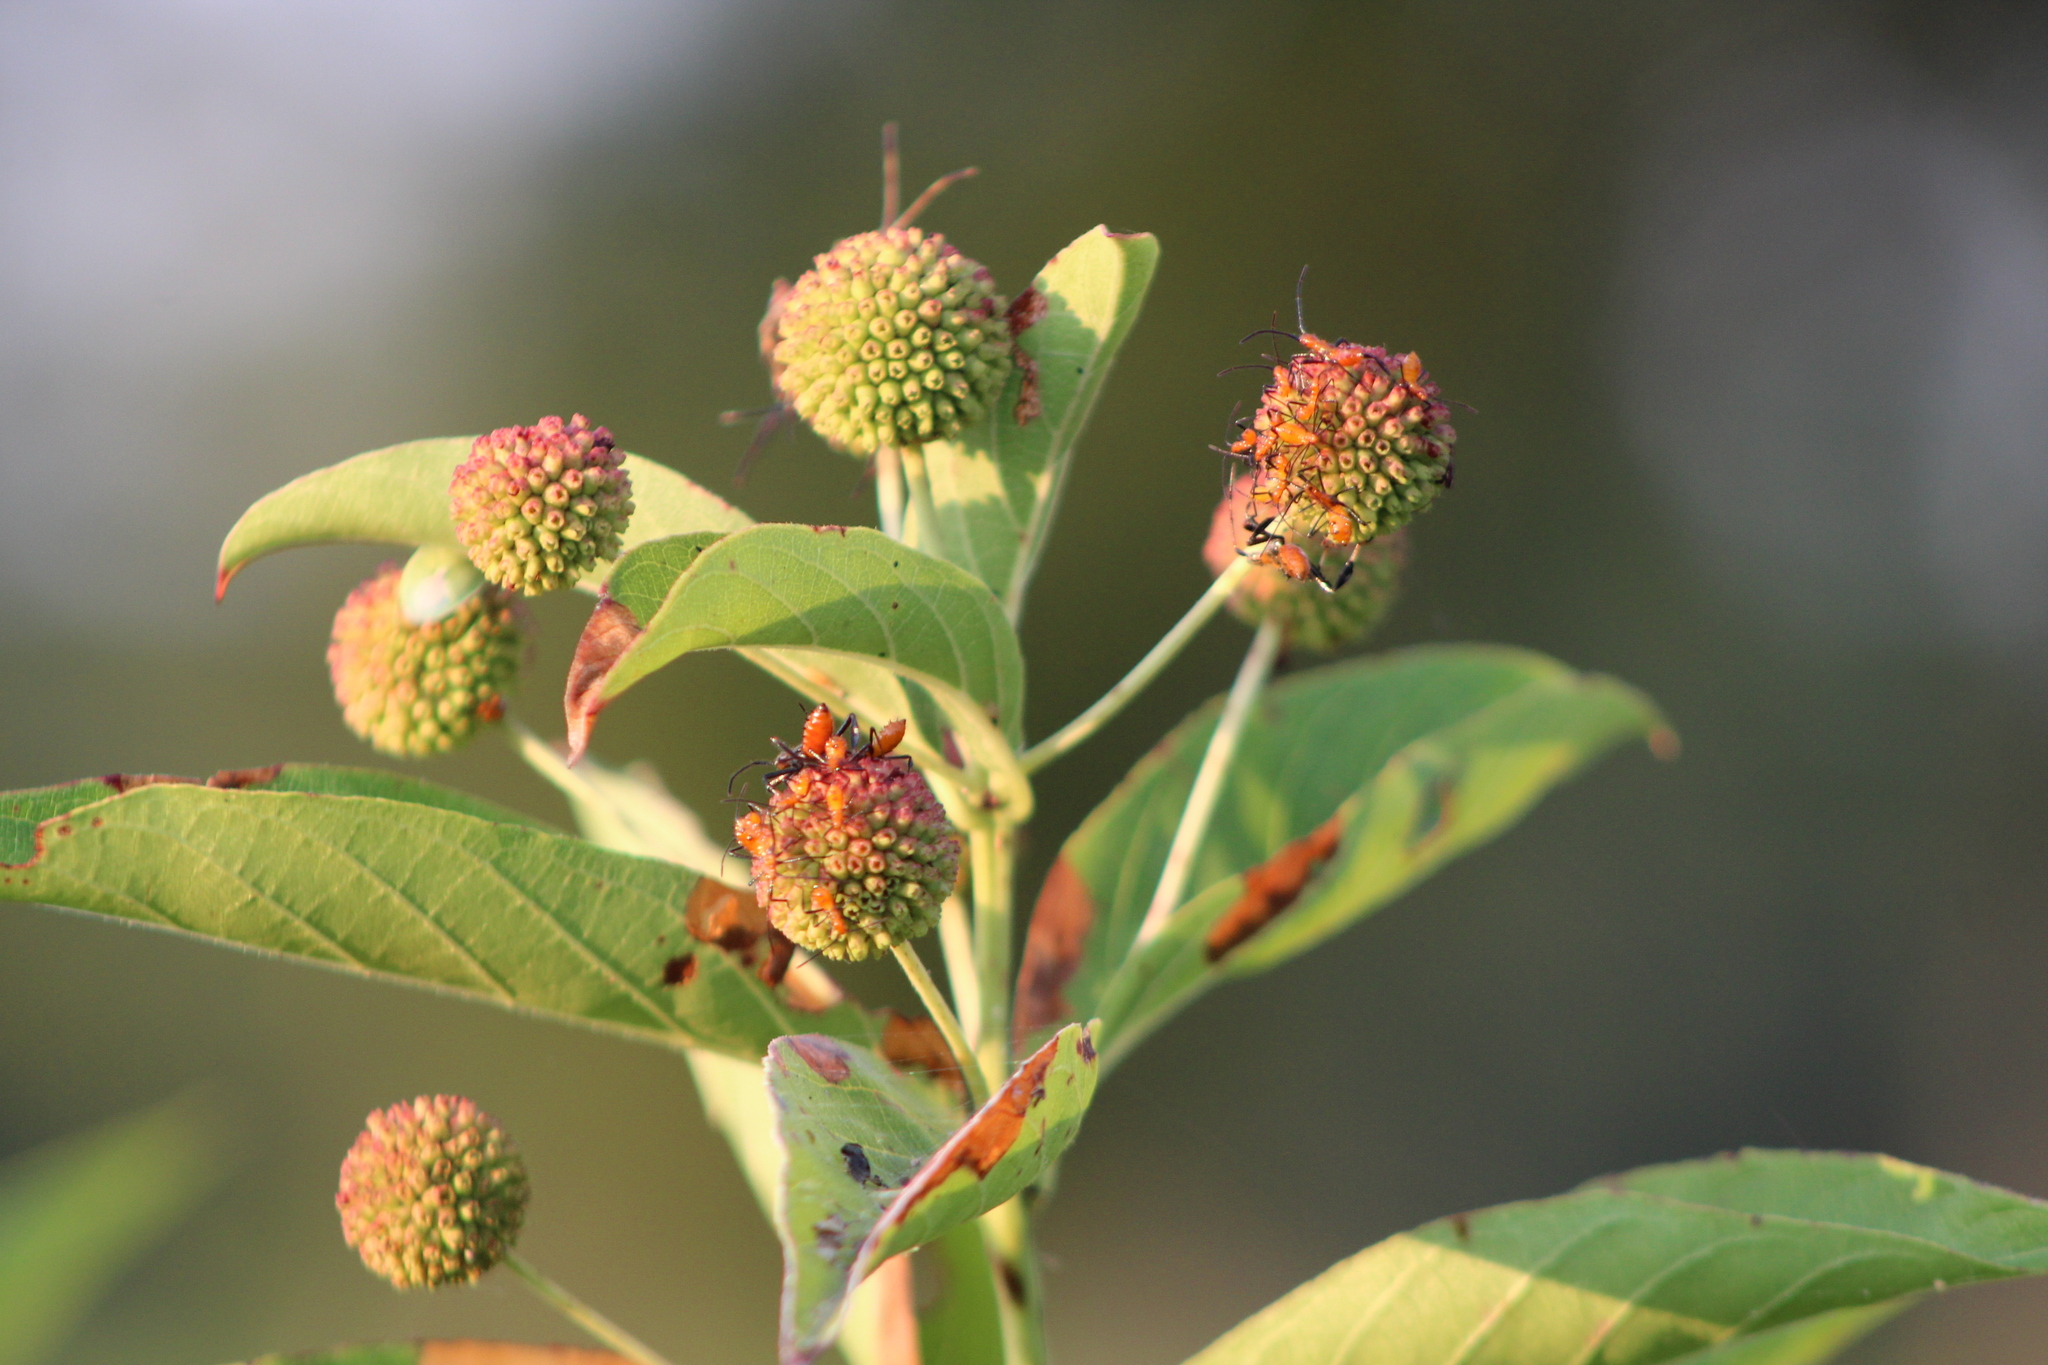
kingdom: Plantae
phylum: Tracheophyta
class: Magnoliopsida
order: Gentianales
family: Rubiaceae
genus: Cephalanthus
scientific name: Cephalanthus occidentalis
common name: Button-willow
